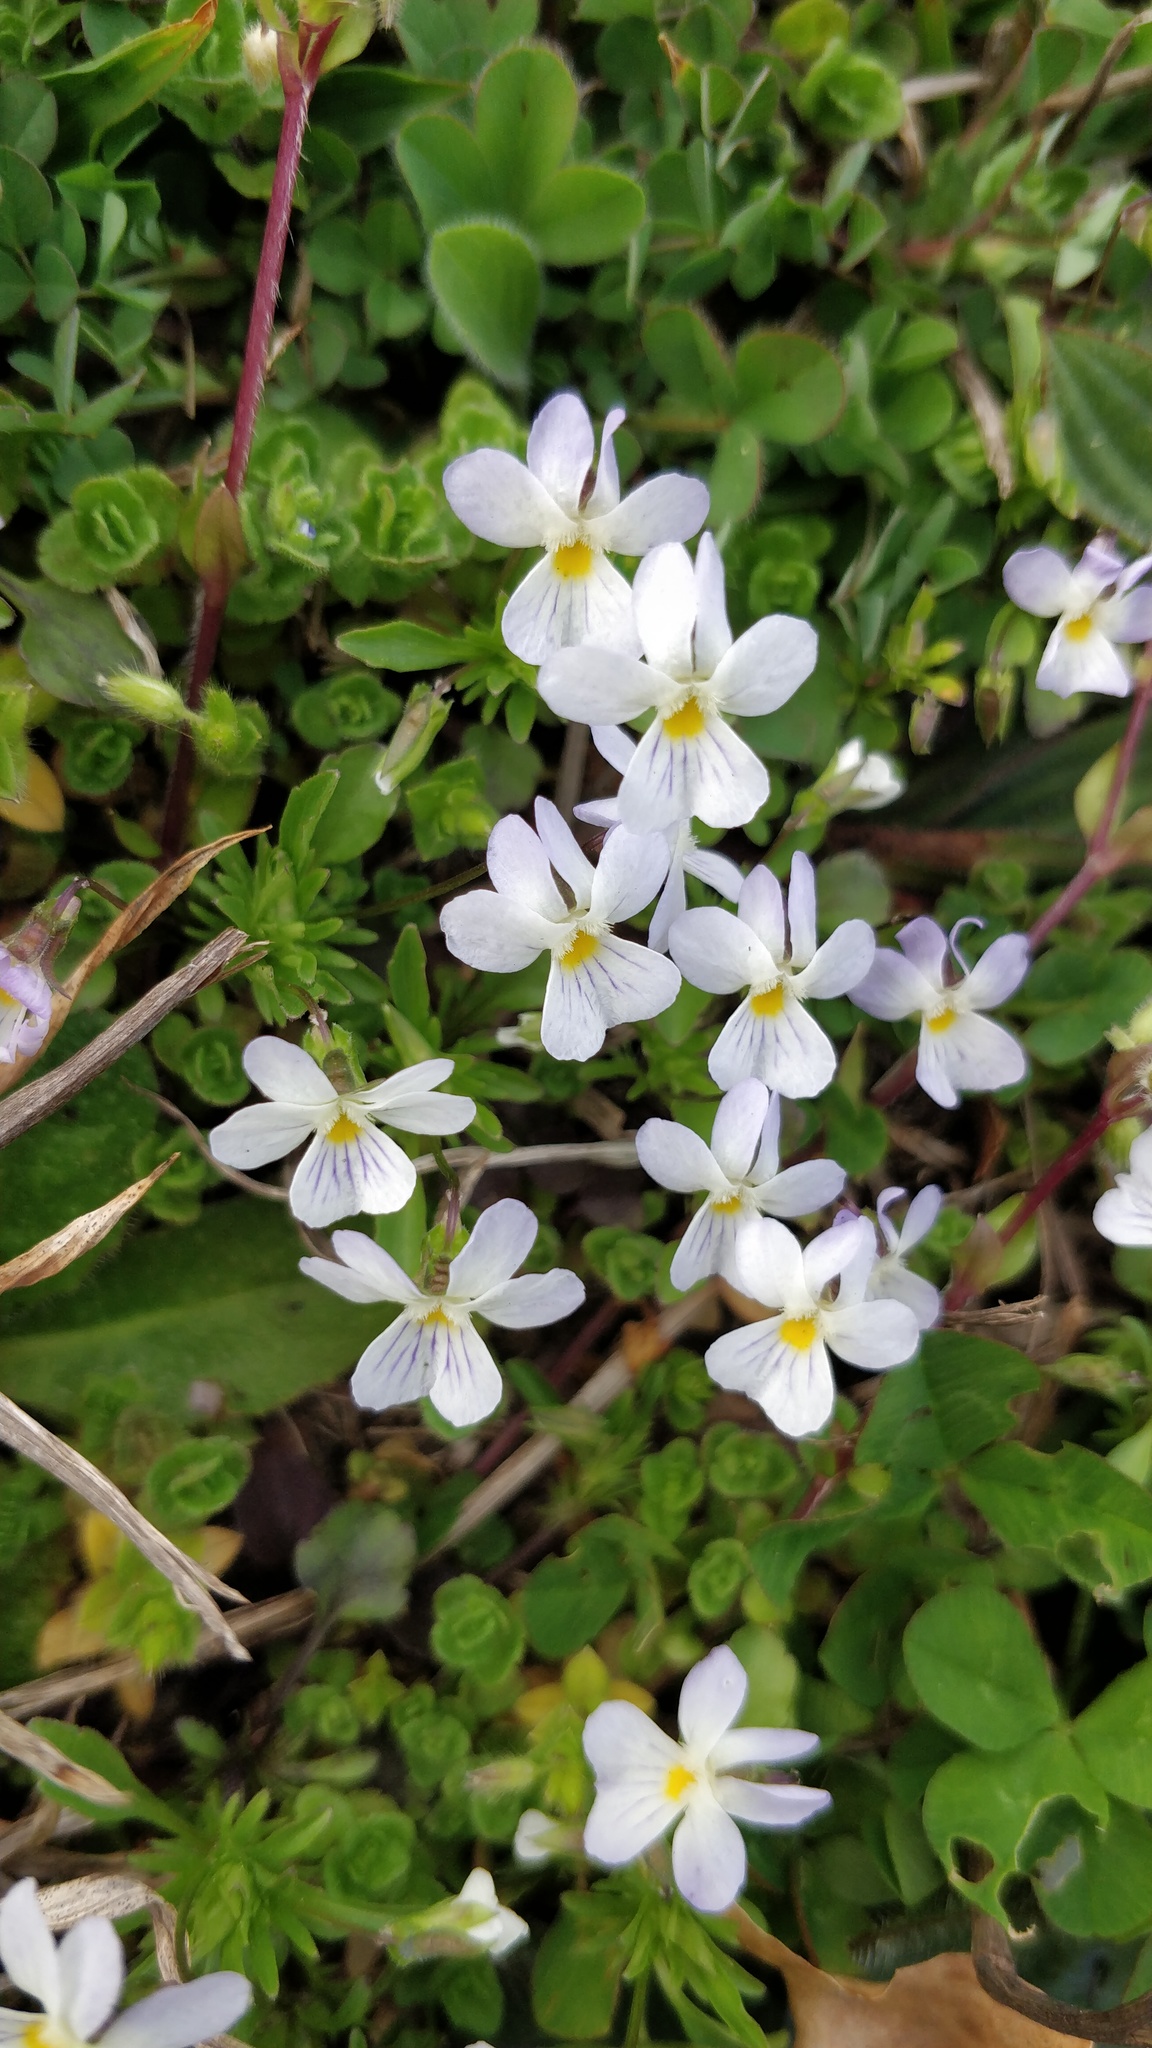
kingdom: Plantae
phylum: Tracheophyta
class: Magnoliopsida
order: Malpighiales
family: Violaceae
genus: Viola
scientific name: Viola rafinesquei
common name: American field pansy
